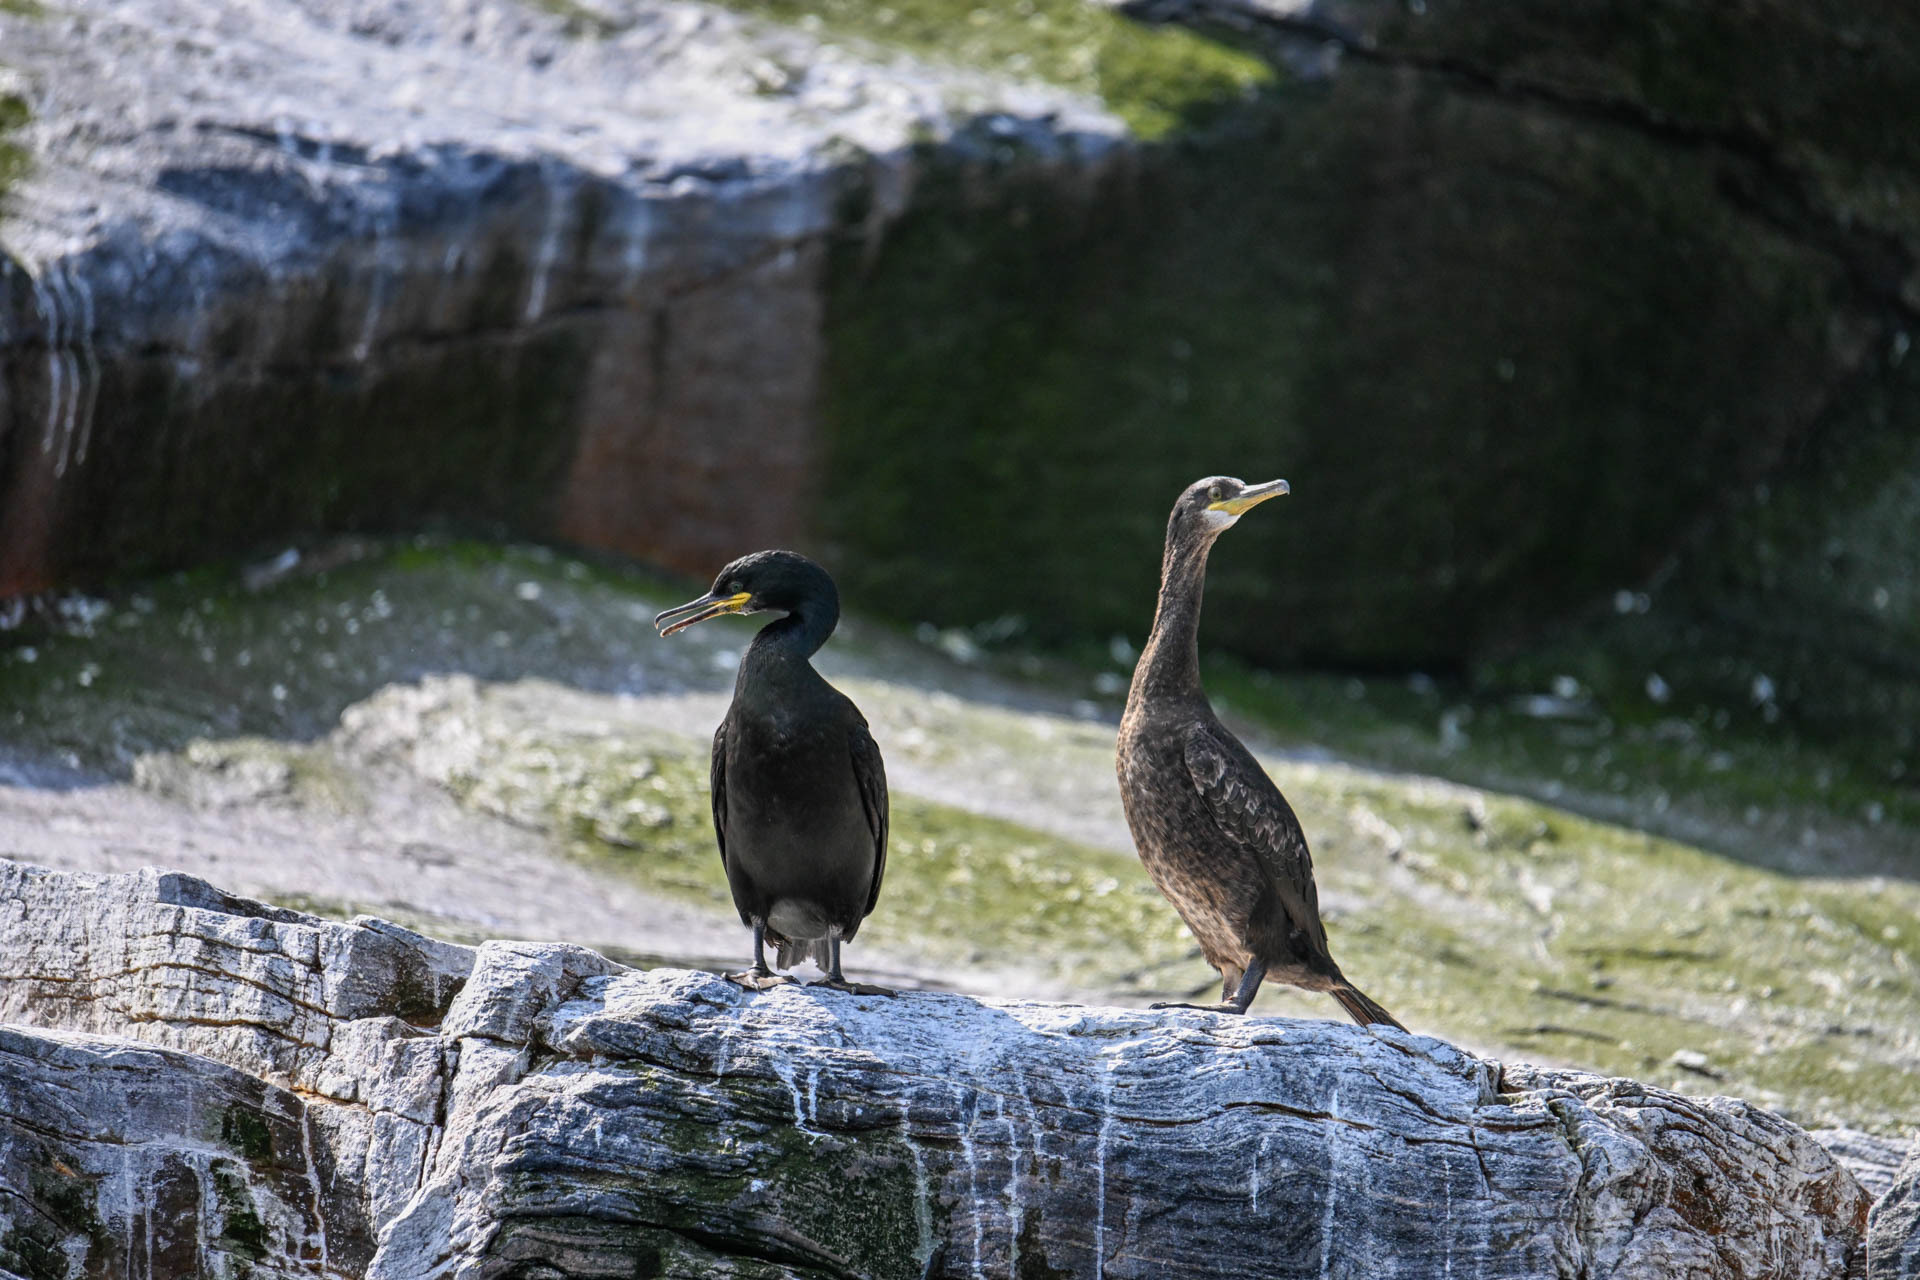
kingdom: Animalia
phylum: Chordata
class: Aves
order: Suliformes
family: Phalacrocoracidae
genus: Phalacrocorax
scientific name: Phalacrocorax aristotelis
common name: European shag
